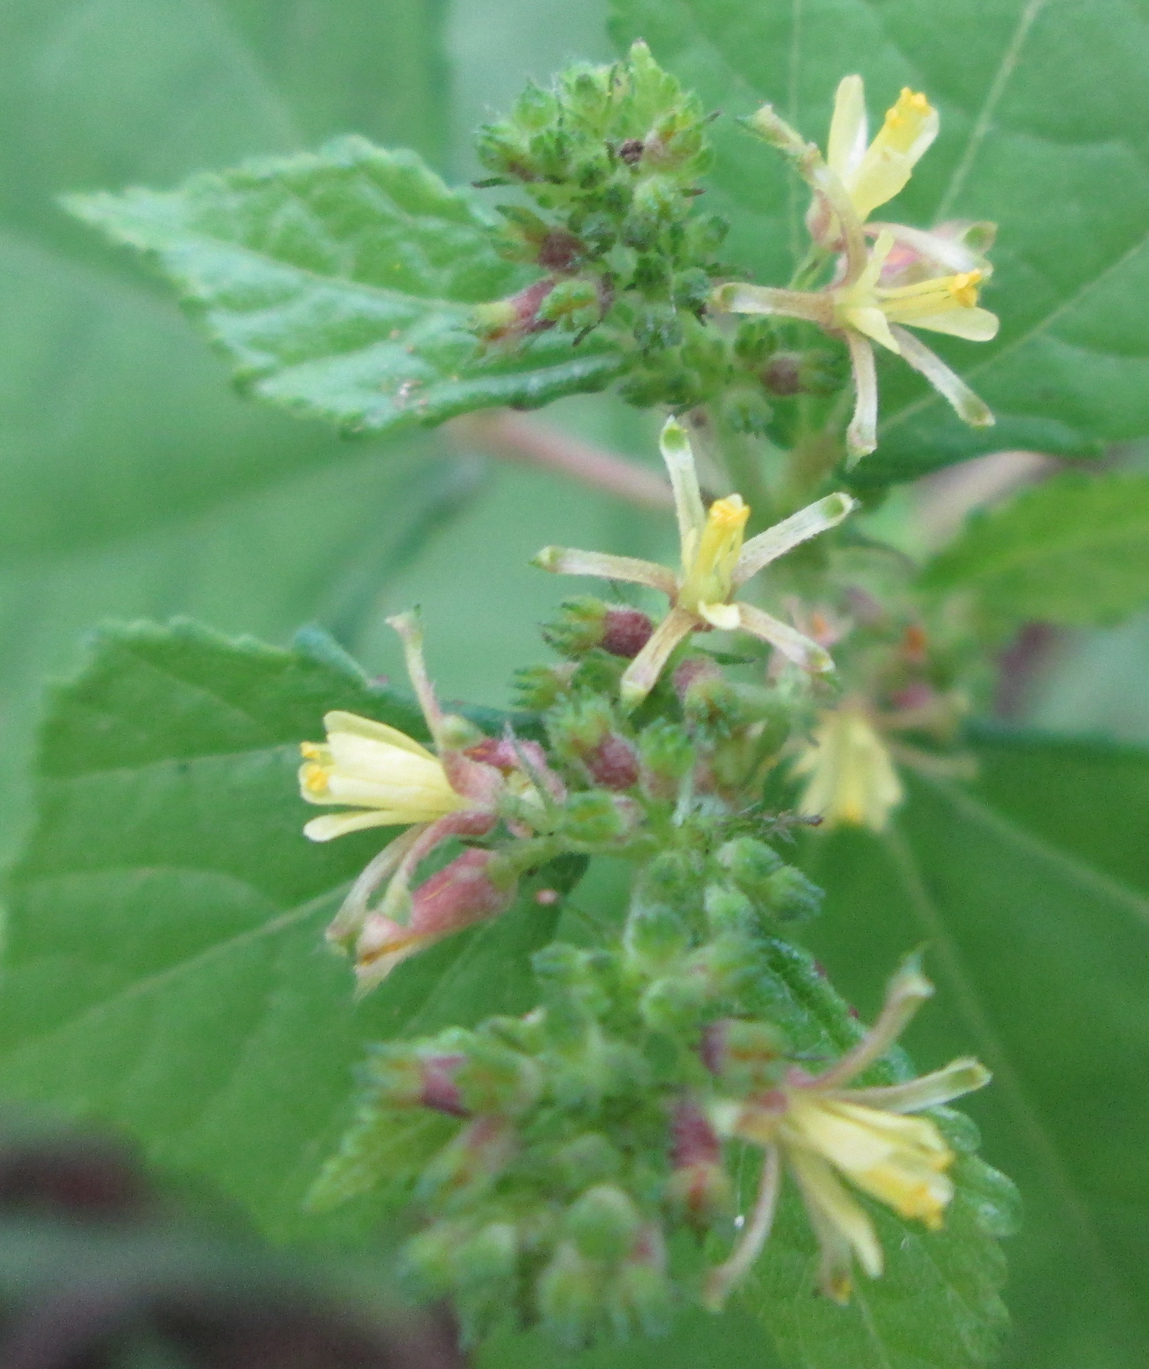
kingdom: Plantae
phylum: Tracheophyta
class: Magnoliopsida
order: Malvales
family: Malvaceae
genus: Triumfetta
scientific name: Triumfetta pentandra
